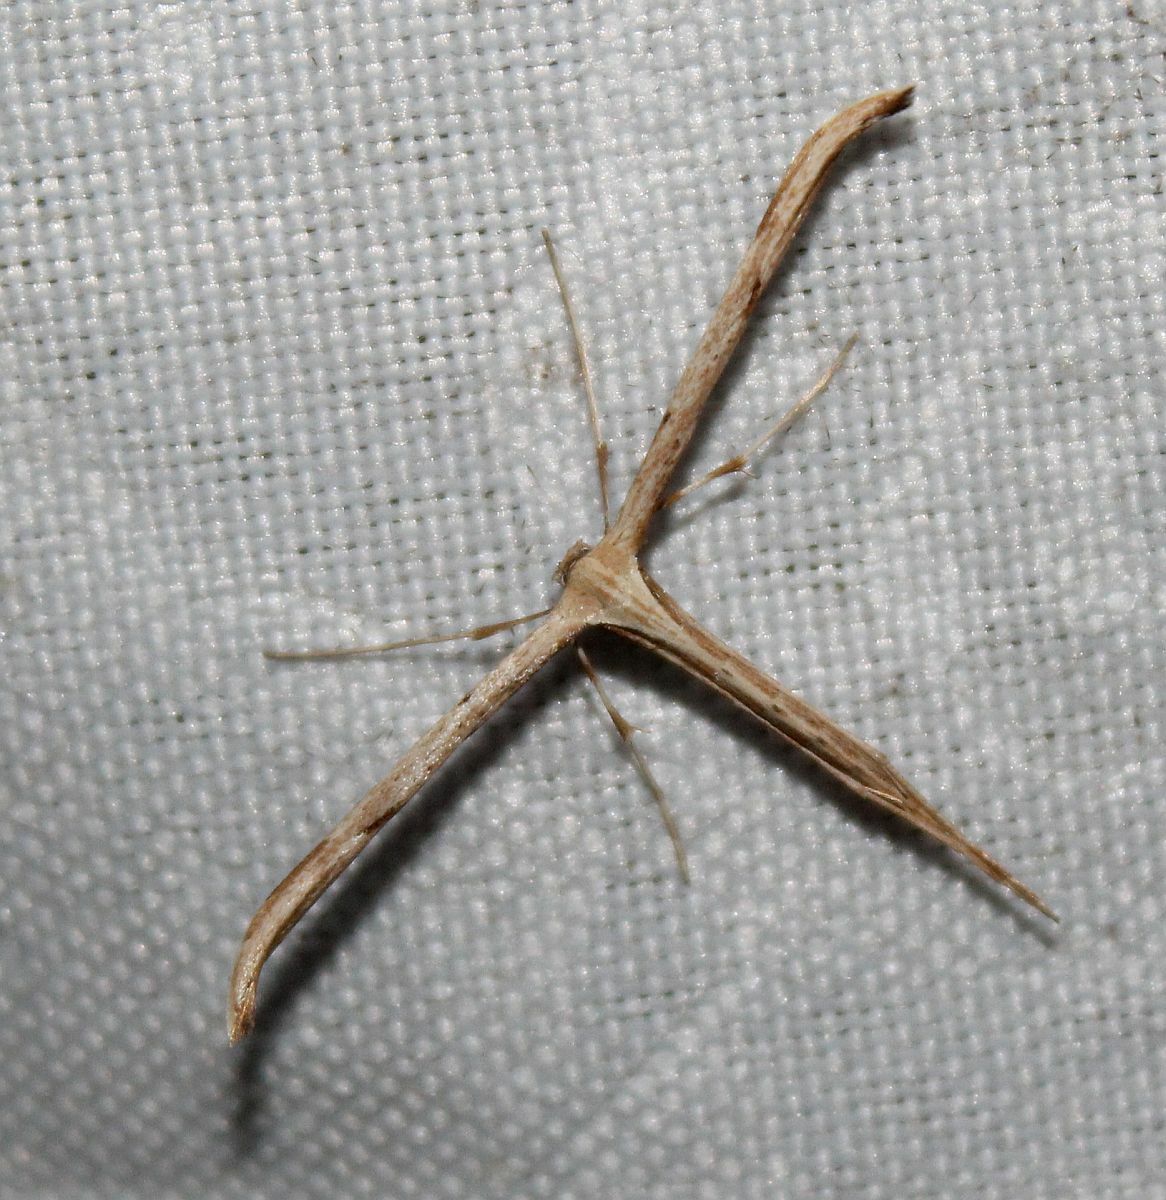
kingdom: Animalia
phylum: Arthropoda
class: Insecta
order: Lepidoptera
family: Pterophoridae
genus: Emmelina
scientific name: Emmelina monodactyla
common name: Common plume
